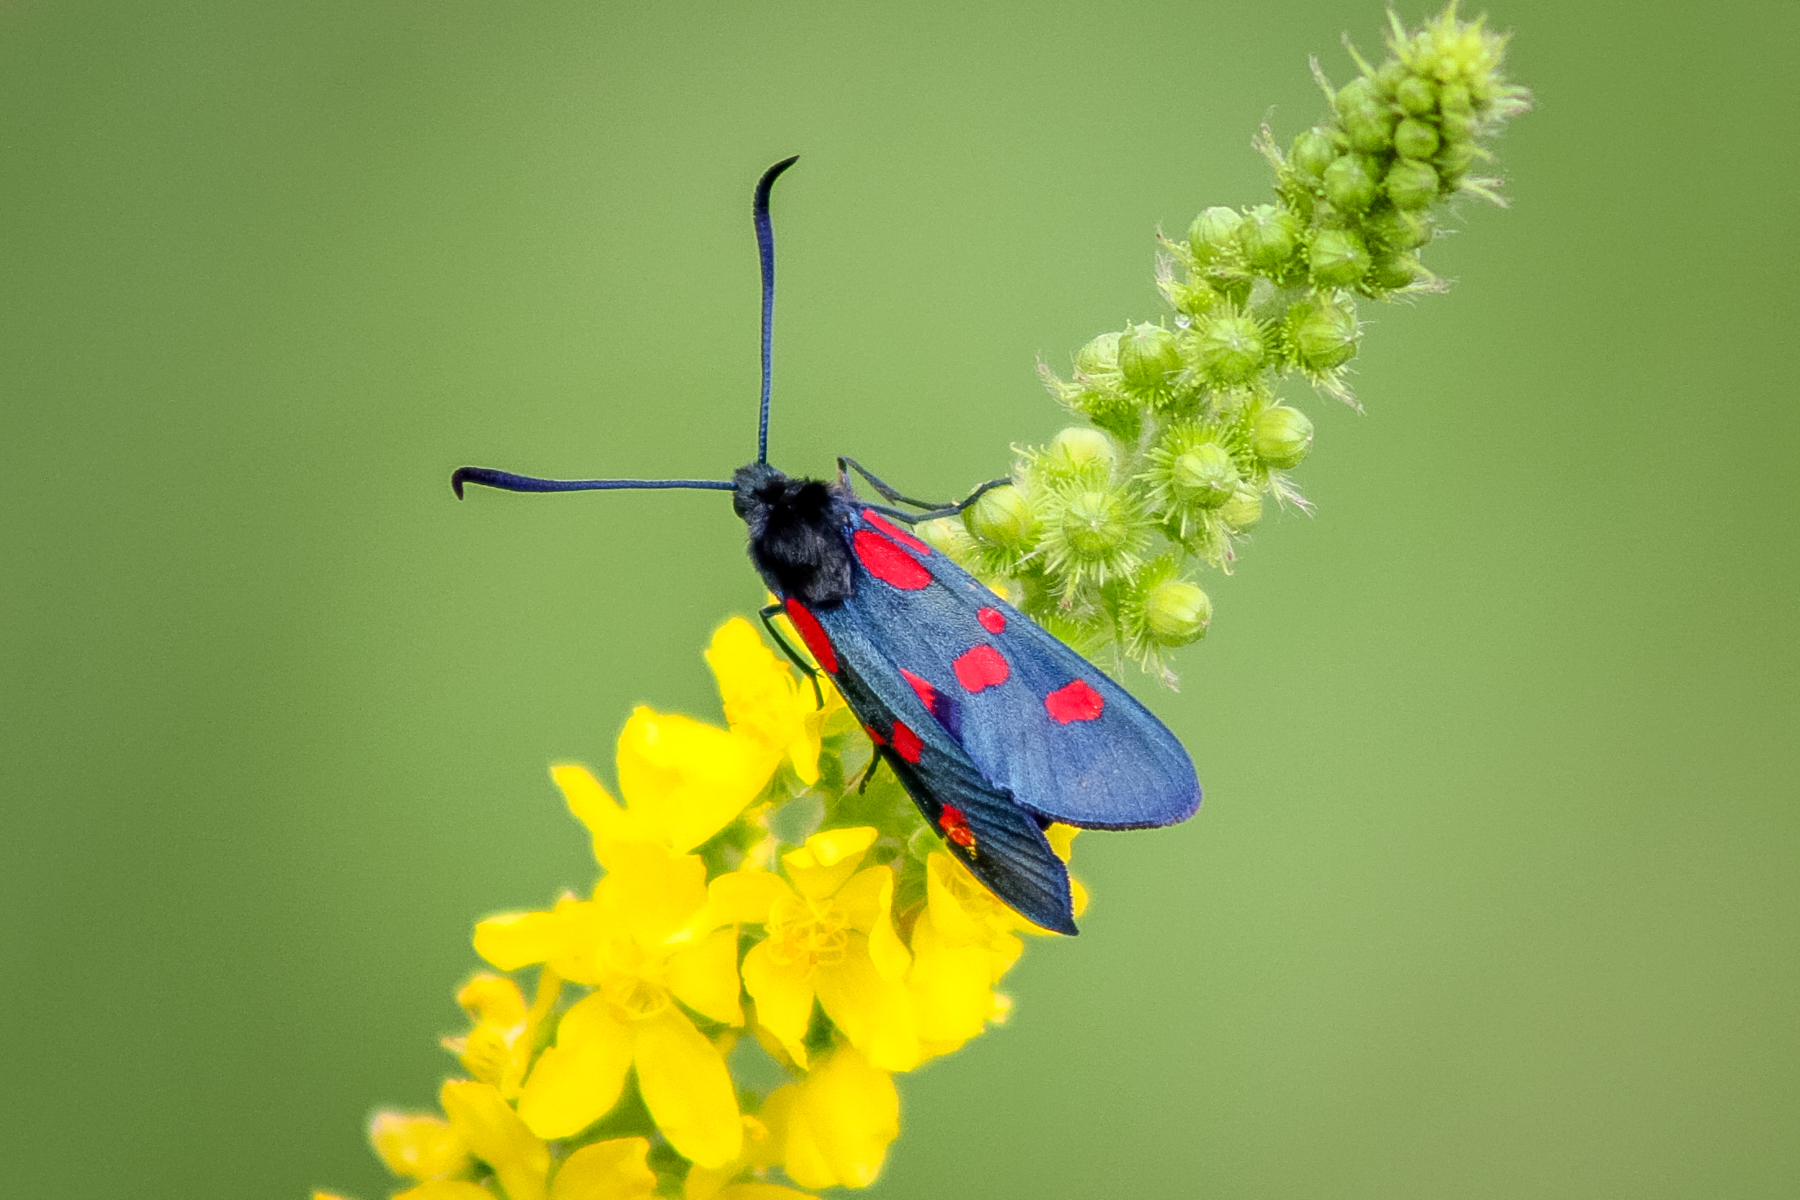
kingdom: Animalia
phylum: Arthropoda
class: Insecta
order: Lepidoptera
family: Zygaenidae
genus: Zygaena
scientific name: Zygaena lonicerae
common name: Narrow-bordered five-spot burnet
